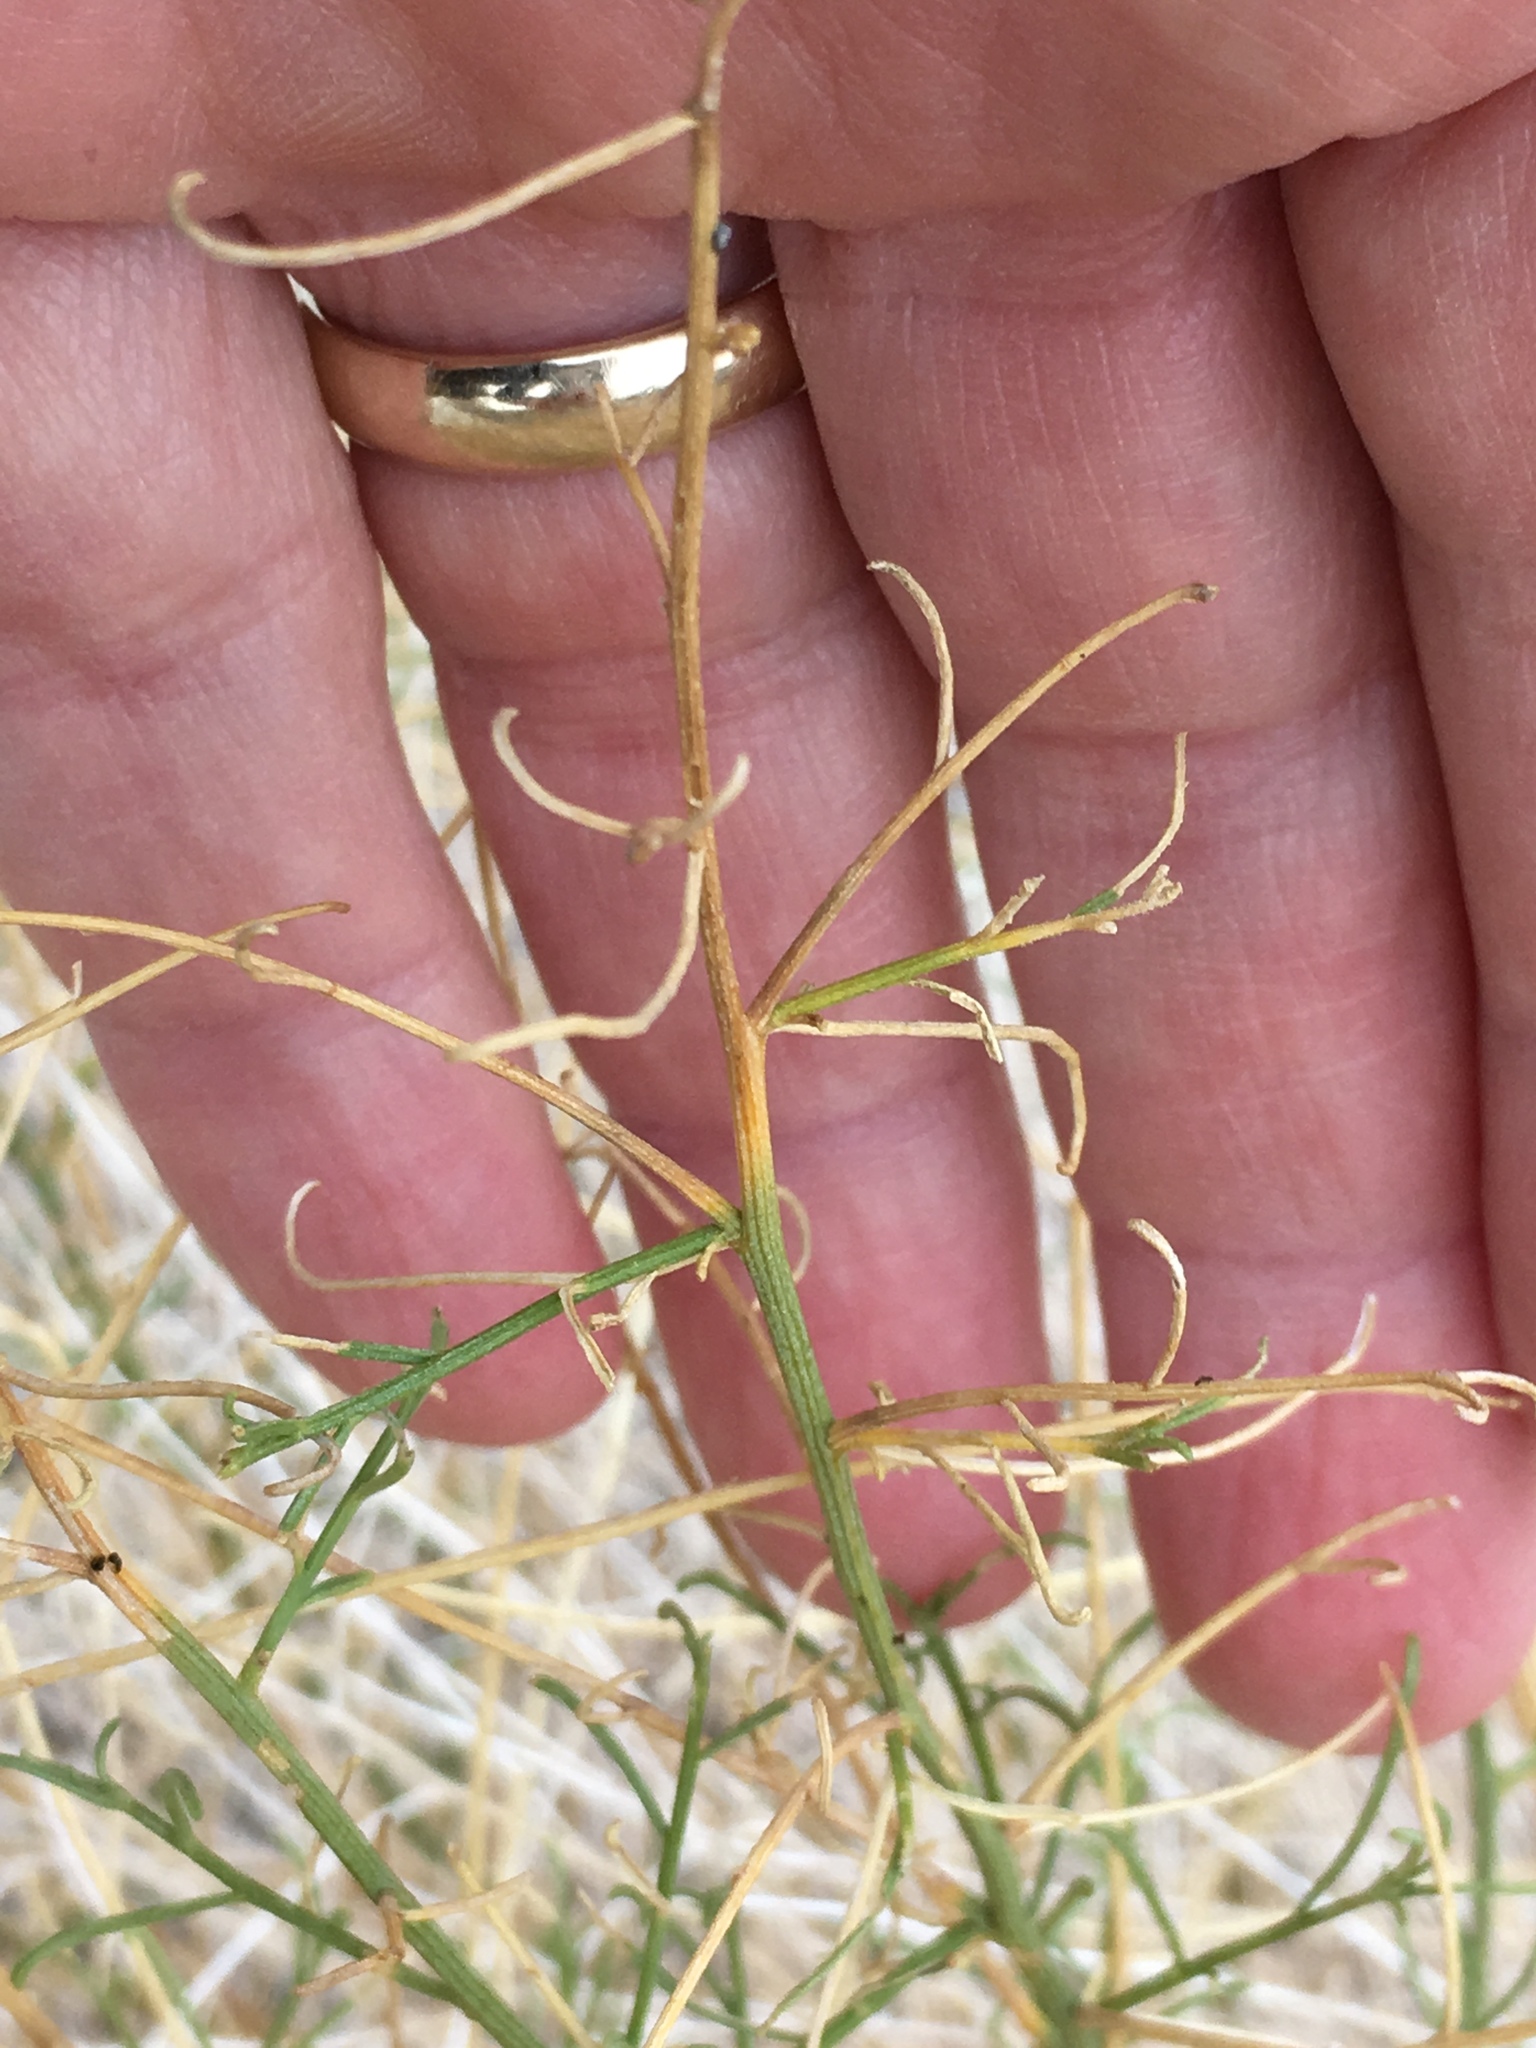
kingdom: Plantae
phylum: Tracheophyta
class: Magnoliopsida
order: Asterales
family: Asteraceae
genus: Ambrosia
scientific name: Ambrosia salsola
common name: Burrobrush
